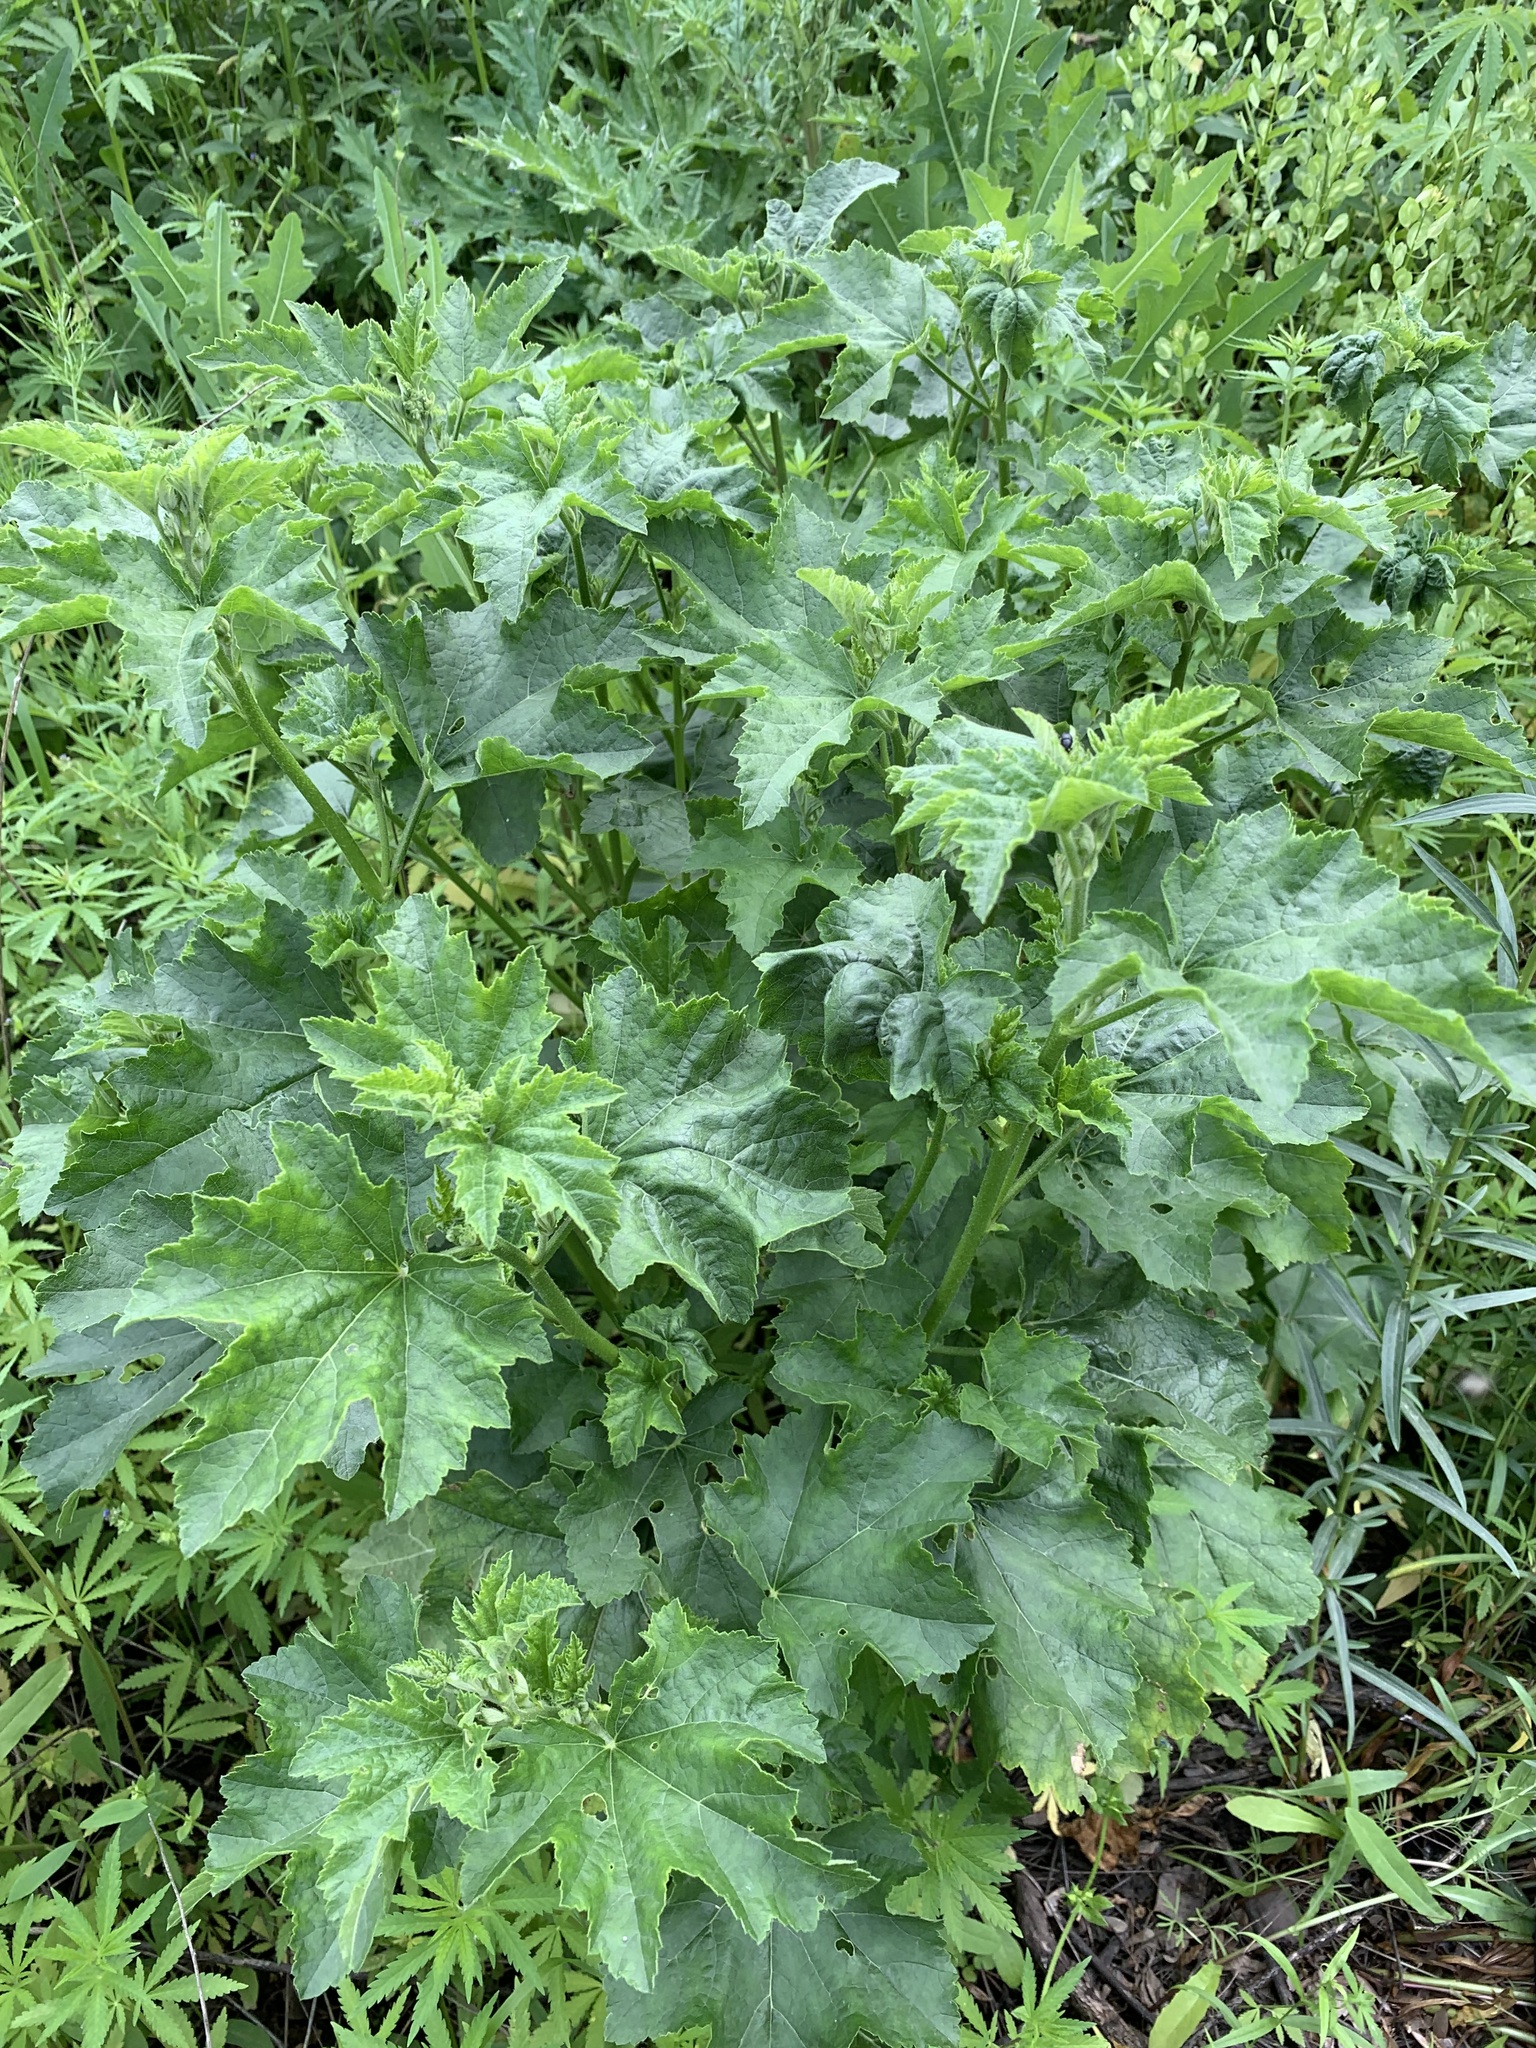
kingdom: Plantae
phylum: Tracheophyta
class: Magnoliopsida
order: Malvales
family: Malvaceae
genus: Malva
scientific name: Malva thuringiaca
